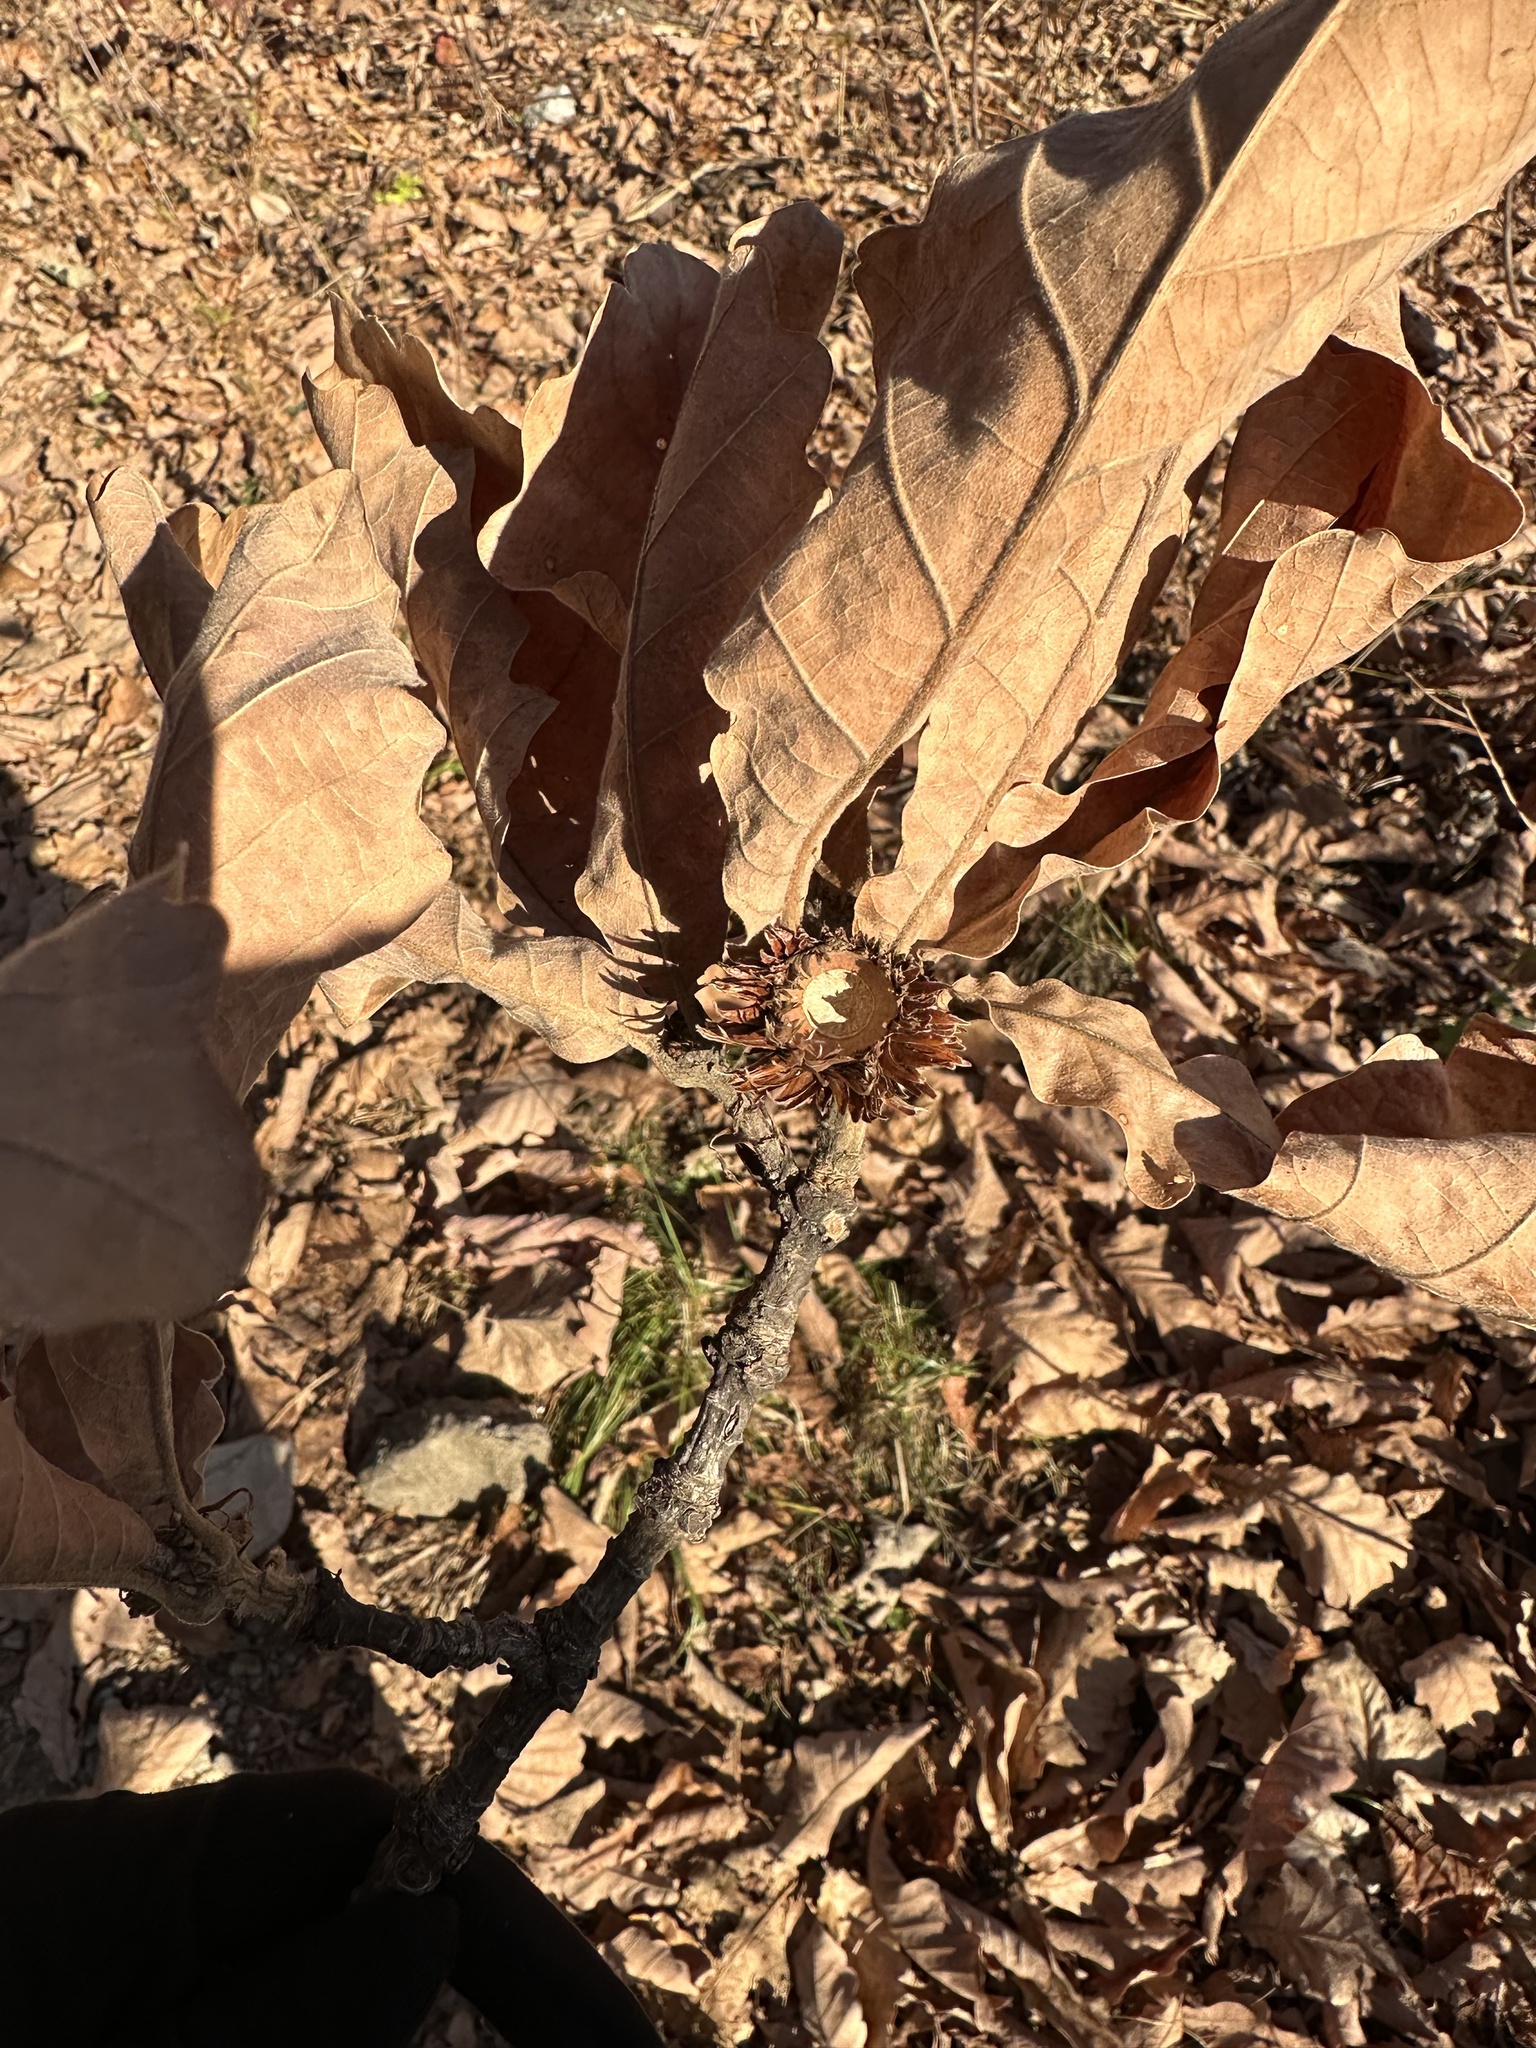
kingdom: Plantae
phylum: Tracheophyta
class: Magnoliopsida
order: Fagales
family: Fagaceae
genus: Quercus
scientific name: Quercus dentata
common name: Daimyo oak
